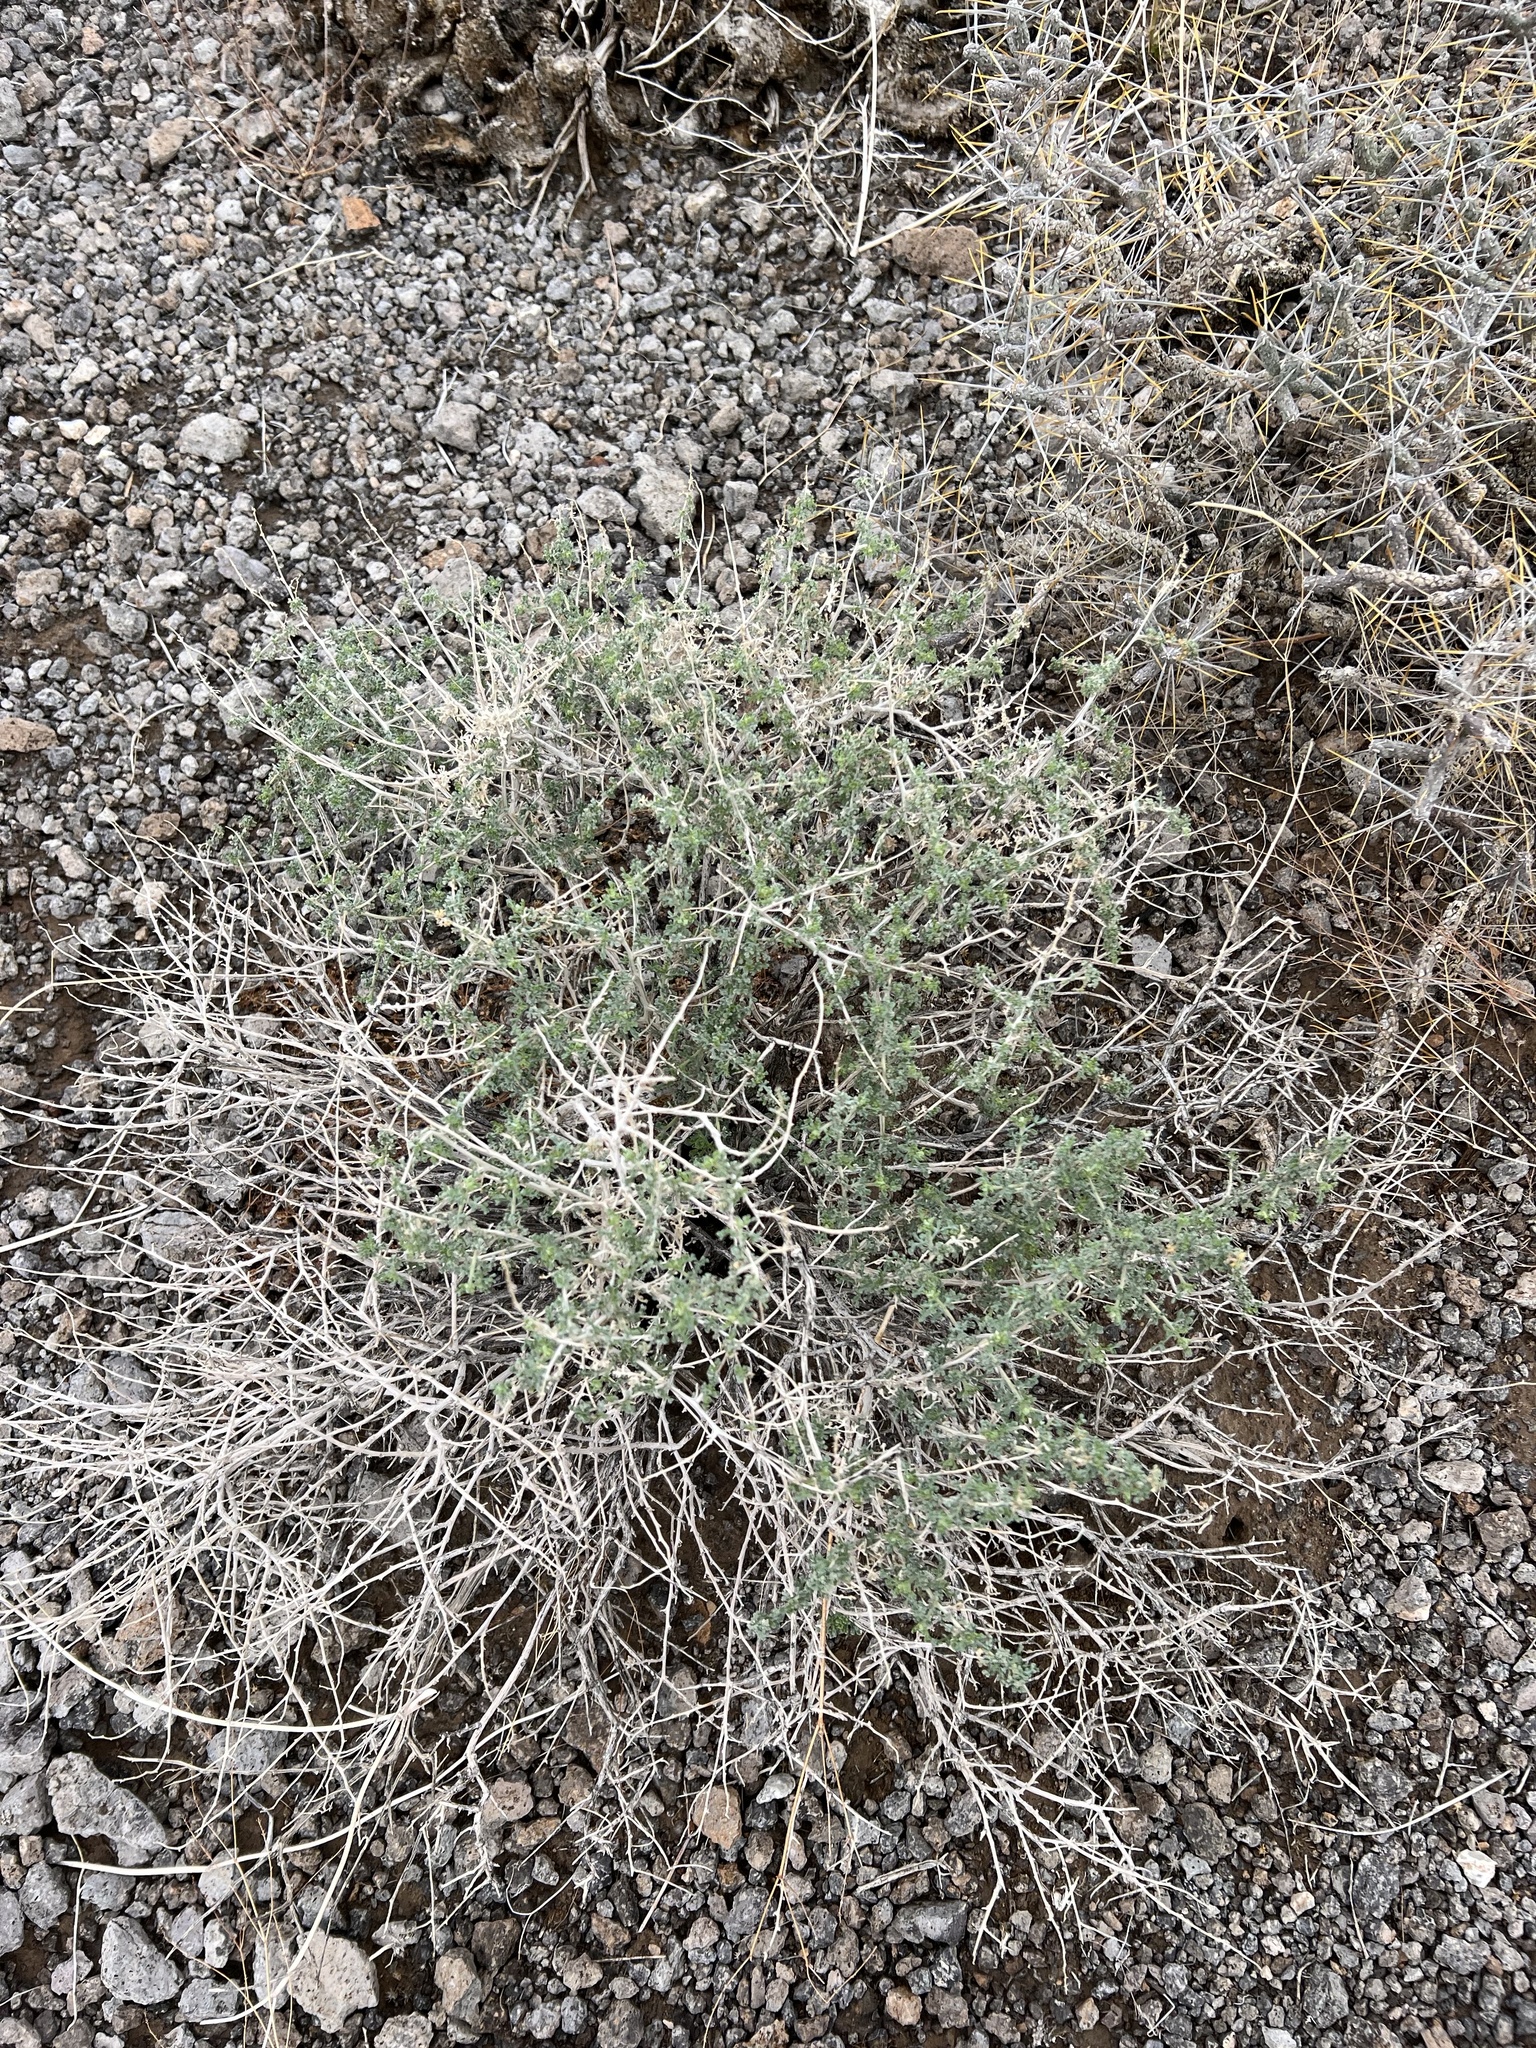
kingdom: Plantae
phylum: Tracheophyta
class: Magnoliopsida
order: Asterales
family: Asteraceae
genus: Ambrosia
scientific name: Ambrosia dumosa
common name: Bur-sage
